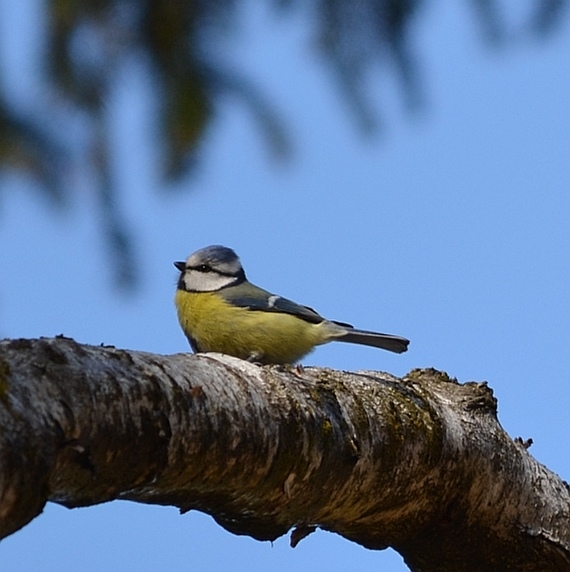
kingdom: Animalia
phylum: Chordata
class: Aves
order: Passeriformes
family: Paridae
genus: Cyanistes
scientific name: Cyanistes caeruleus
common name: Eurasian blue tit
